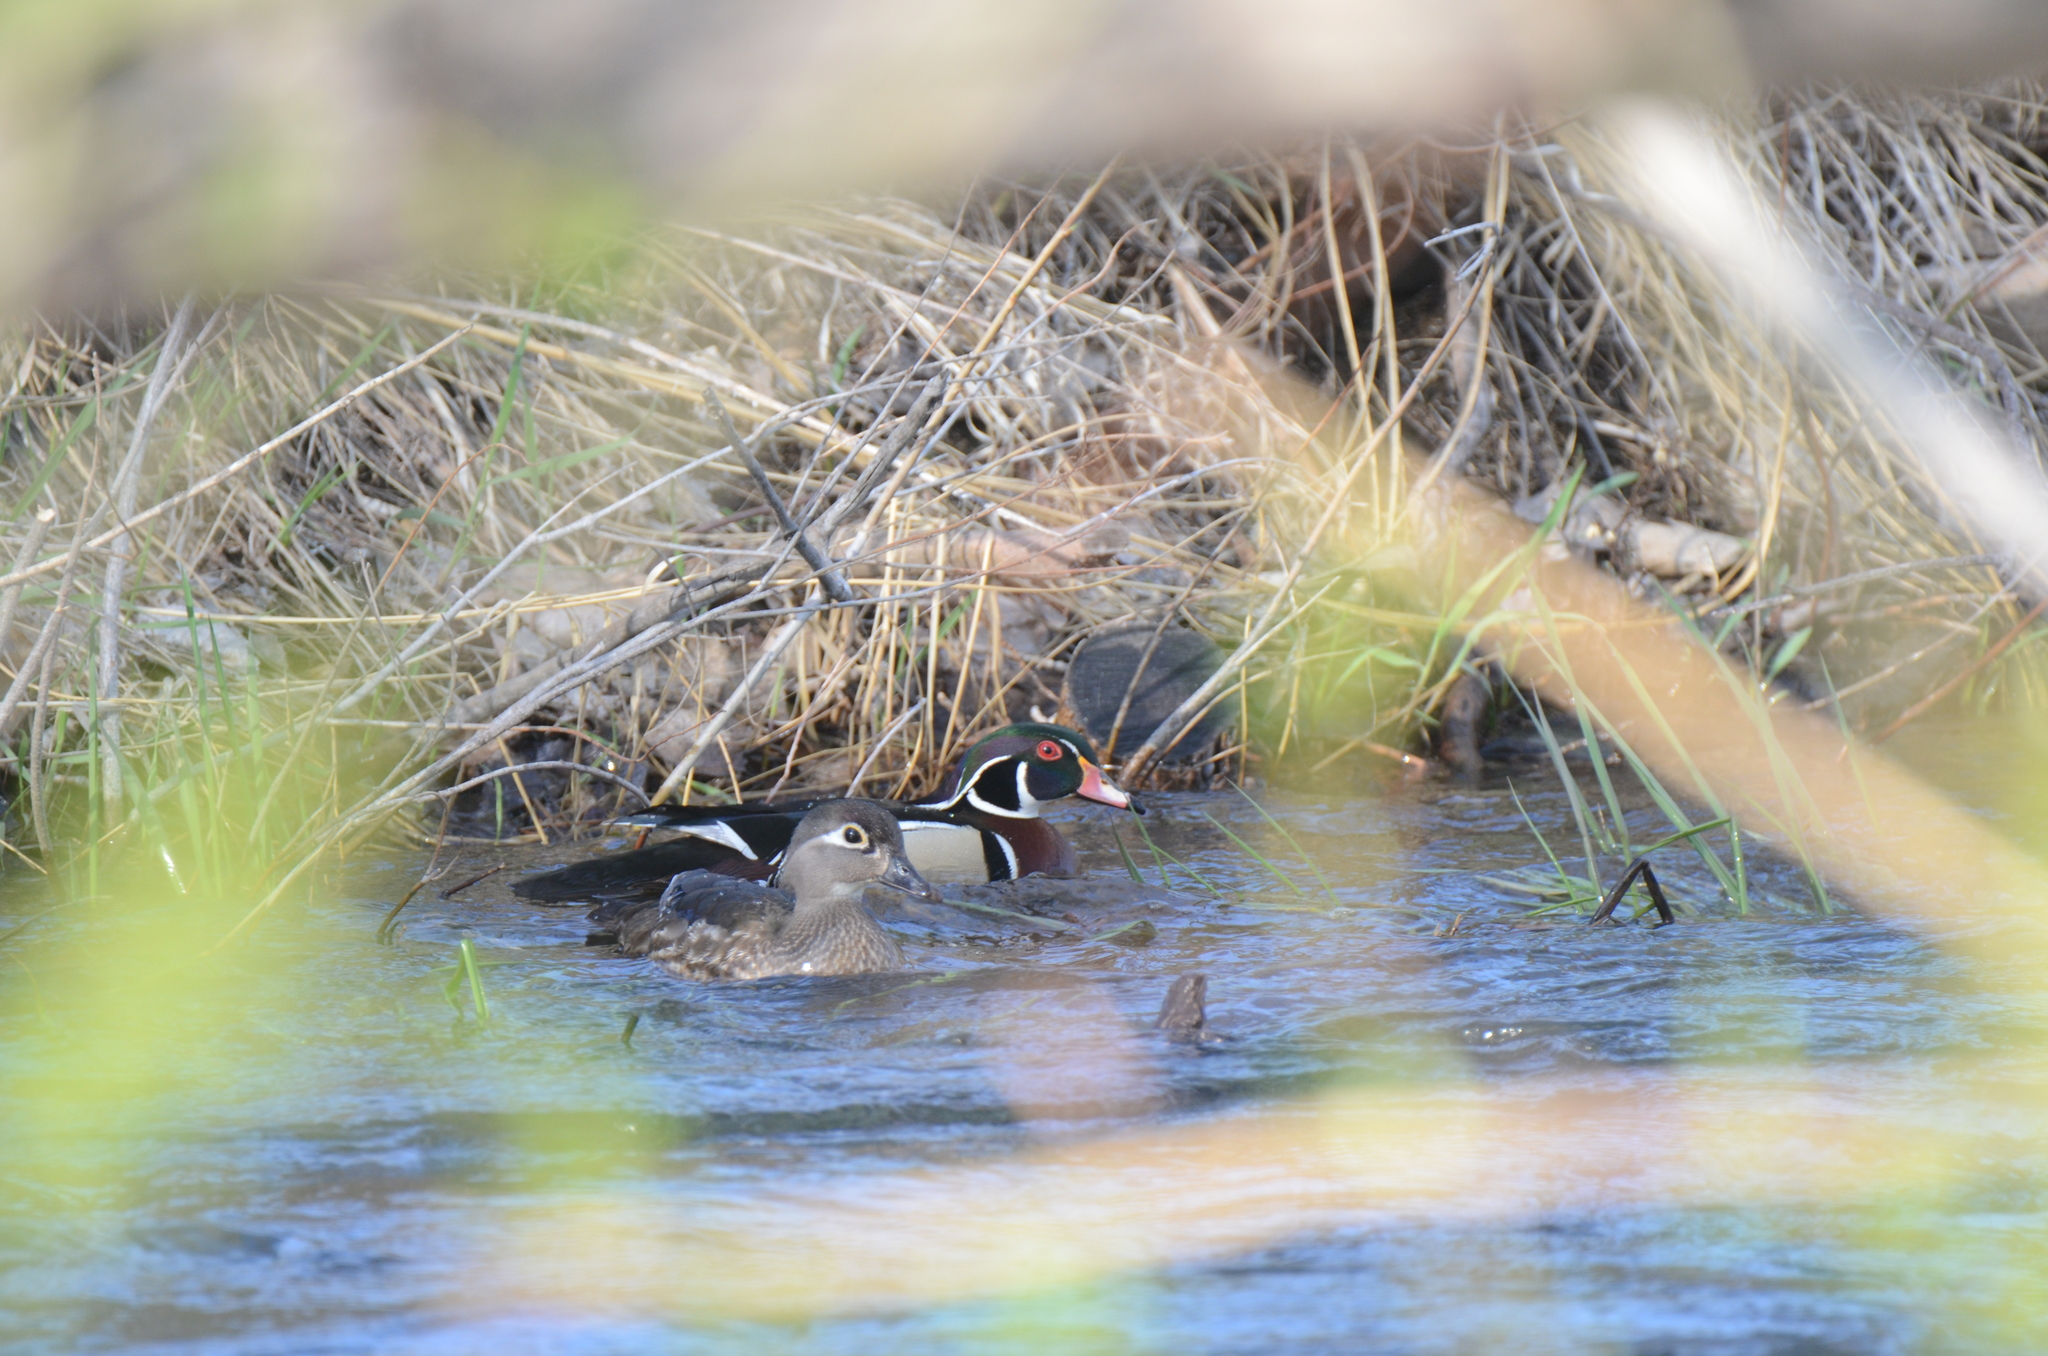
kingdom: Animalia
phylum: Chordata
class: Aves
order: Anseriformes
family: Anatidae
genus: Aix
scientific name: Aix sponsa
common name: Wood duck
